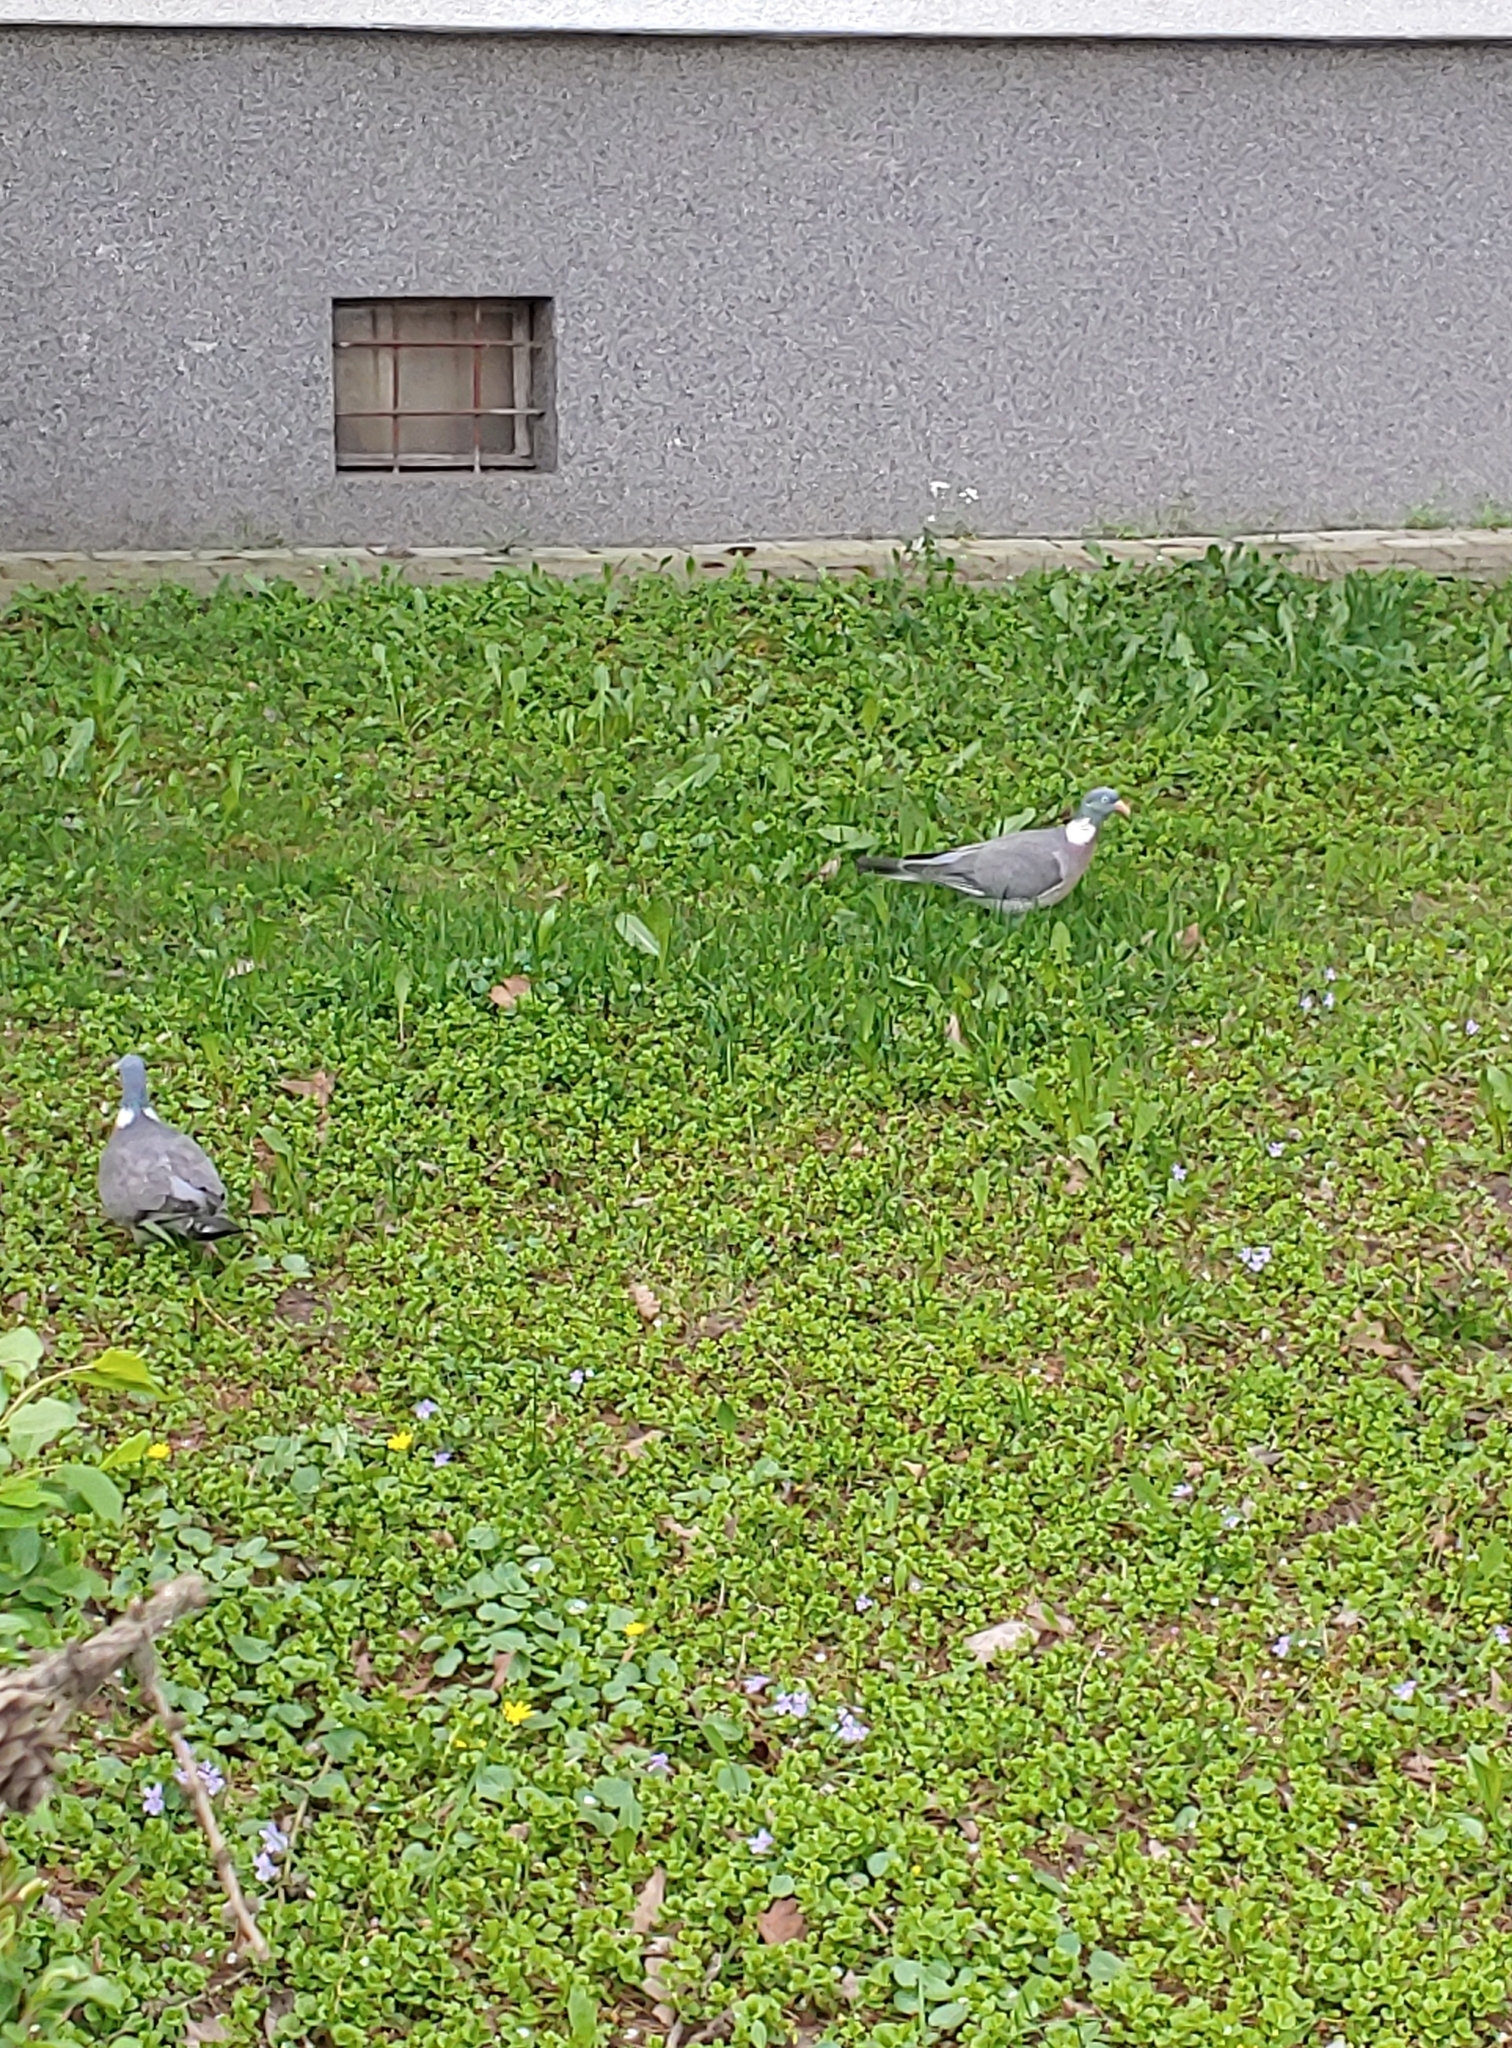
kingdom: Animalia
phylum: Chordata
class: Aves
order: Columbiformes
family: Columbidae
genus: Columba
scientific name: Columba palumbus
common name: Common wood pigeon
